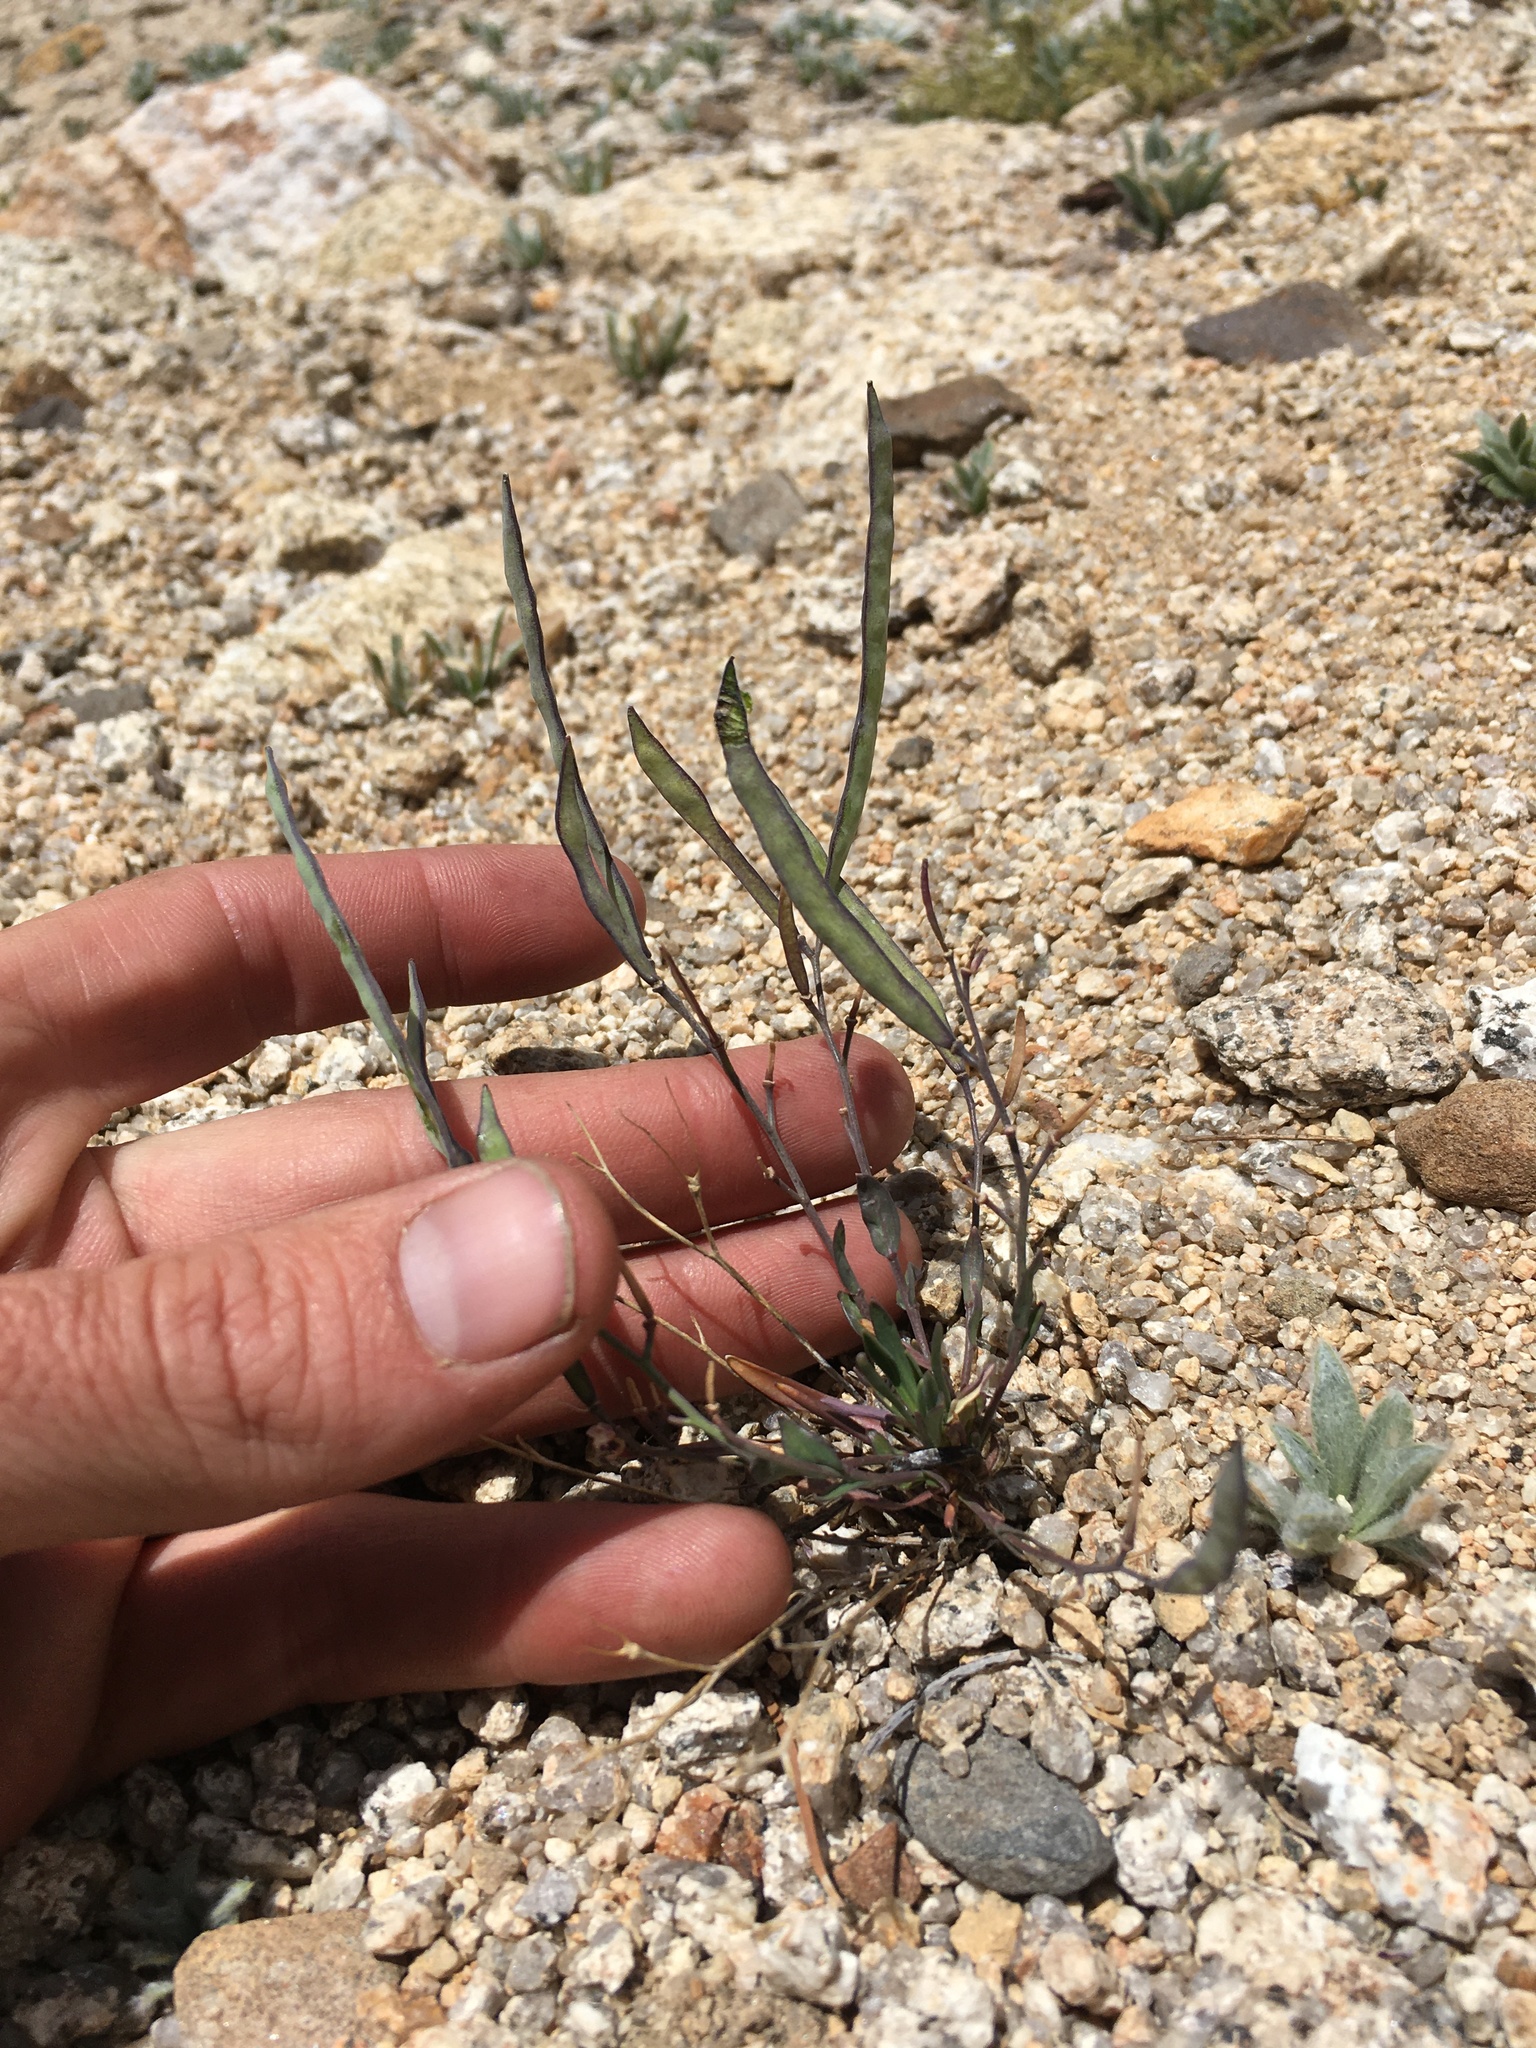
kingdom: Plantae
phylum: Tracheophyta
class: Magnoliopsida
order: Brassicales
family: Brassicaceae
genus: Boechera
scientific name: Boechera howellii
